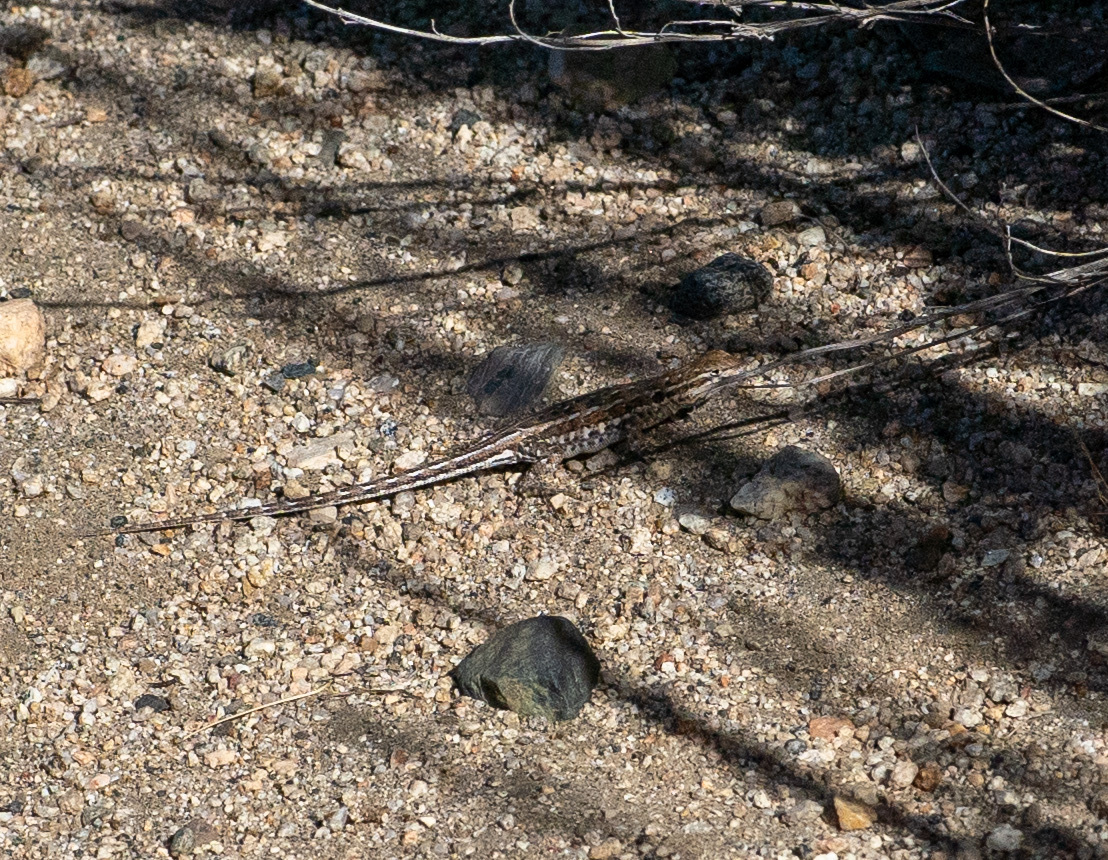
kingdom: Animalia
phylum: Chordata
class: Squamata
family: Phrynosomatidae
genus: Uta
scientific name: Uta stansburiana
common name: Side-blotched lizard
